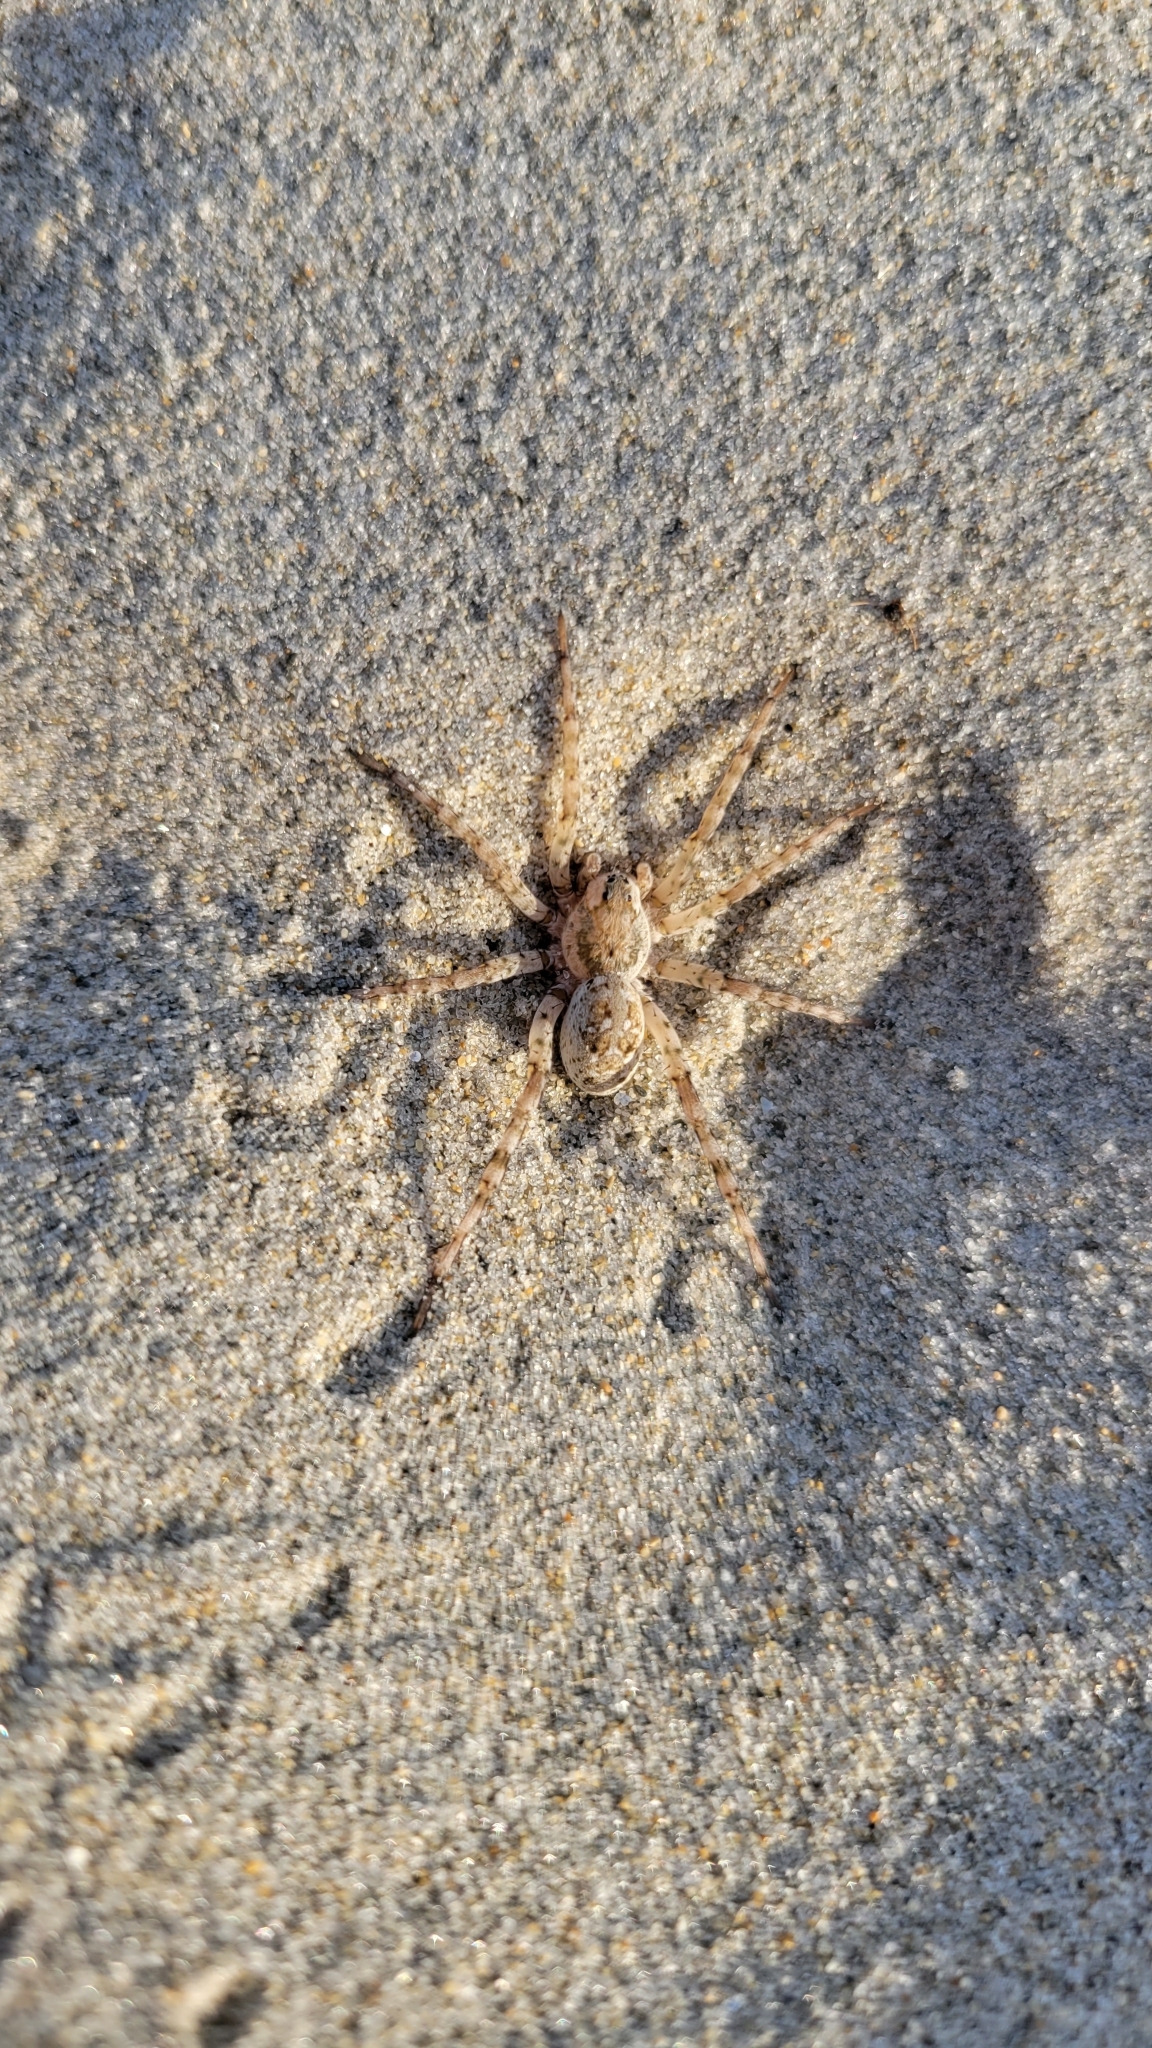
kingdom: Animalia
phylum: Arthropoda
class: Arachnida
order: Araneae
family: Lycosidae
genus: Arctosa
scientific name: Arctosa littoralis
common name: Wolf spiders
